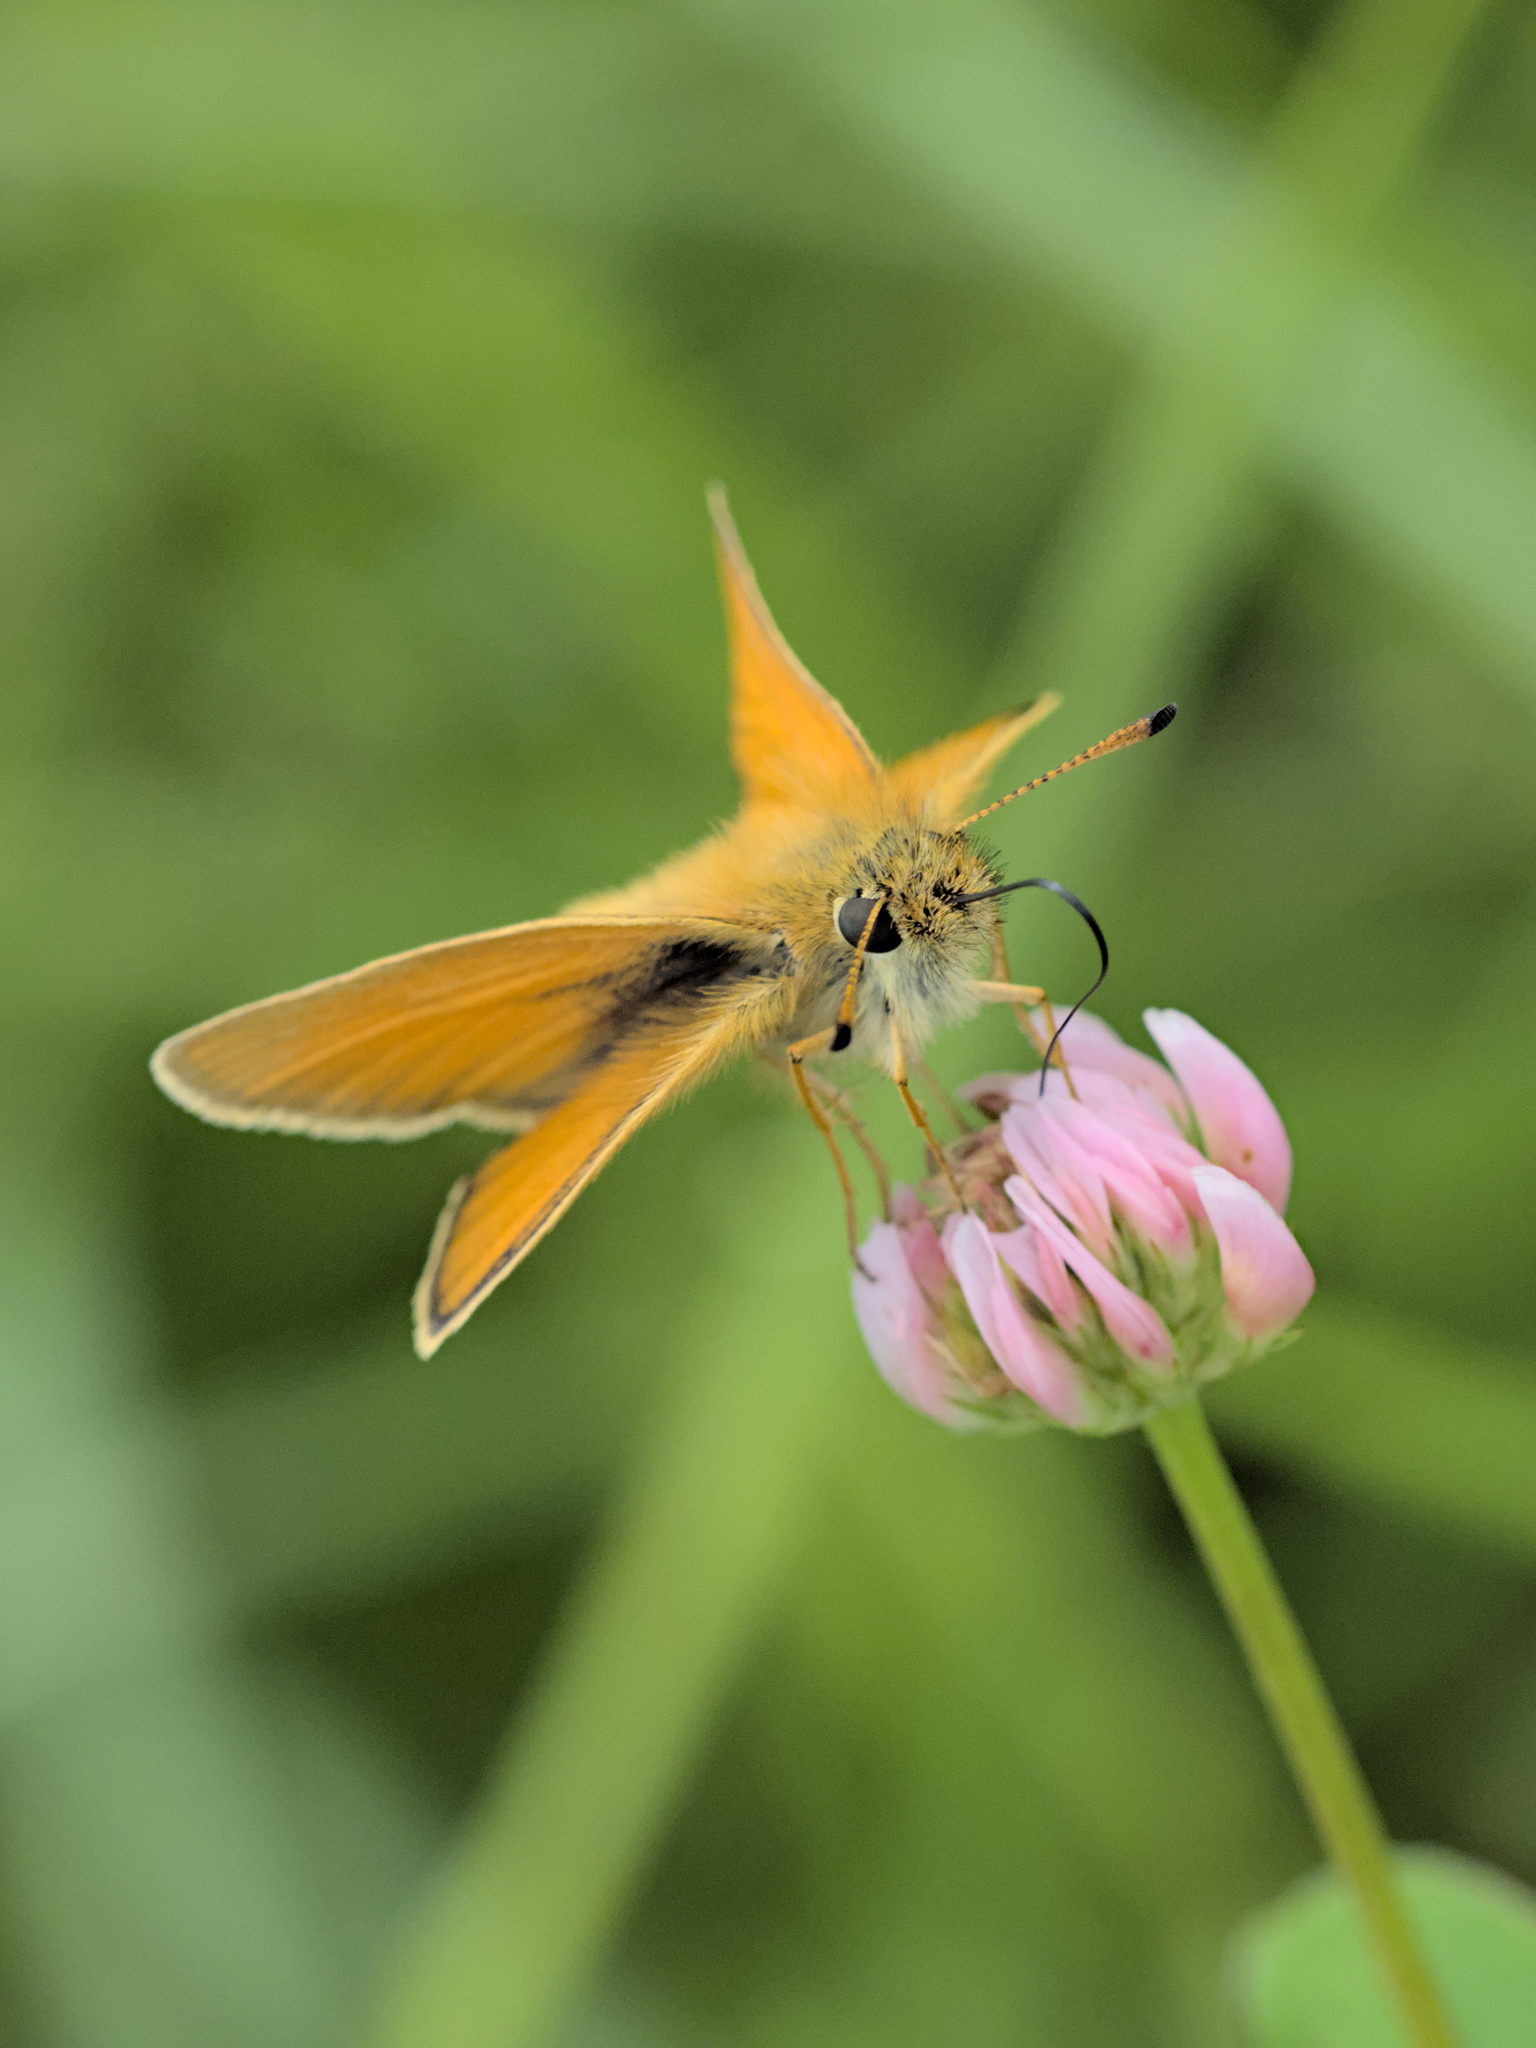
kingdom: Animalia
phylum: Arthropoda
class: Insecta
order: Lepidoptera
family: Hesperiidae
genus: Thymelicus
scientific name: Thymelicus lineola
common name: Essex skipper
